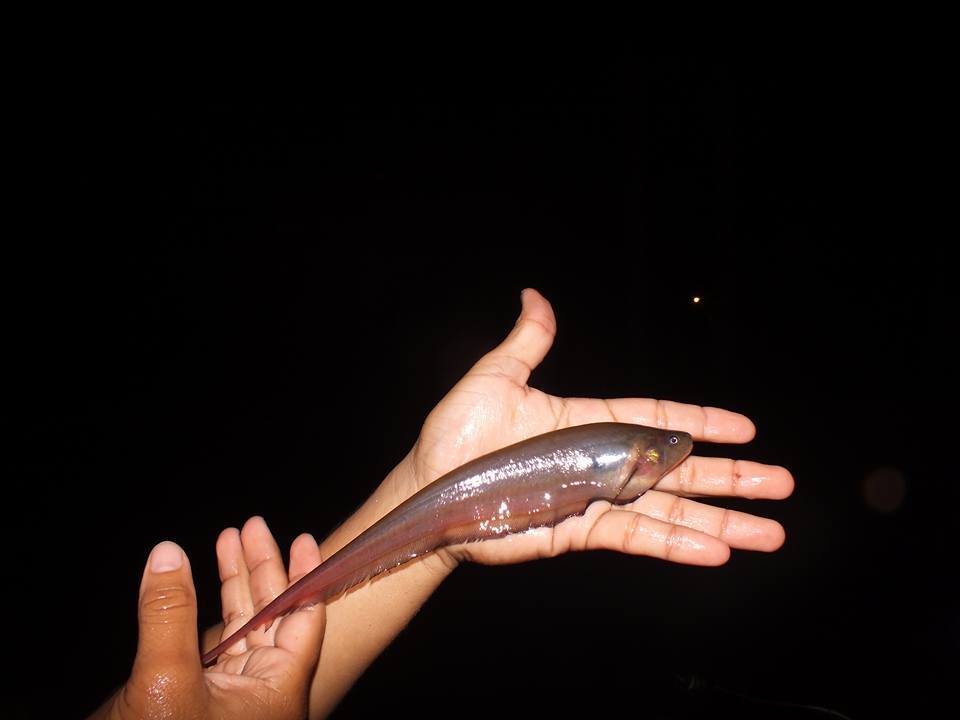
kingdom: Animalia
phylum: Chordata
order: Gymnotiformes
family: Sternopygidae
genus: Eigenmannia
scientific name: Eigenmannia limbata
